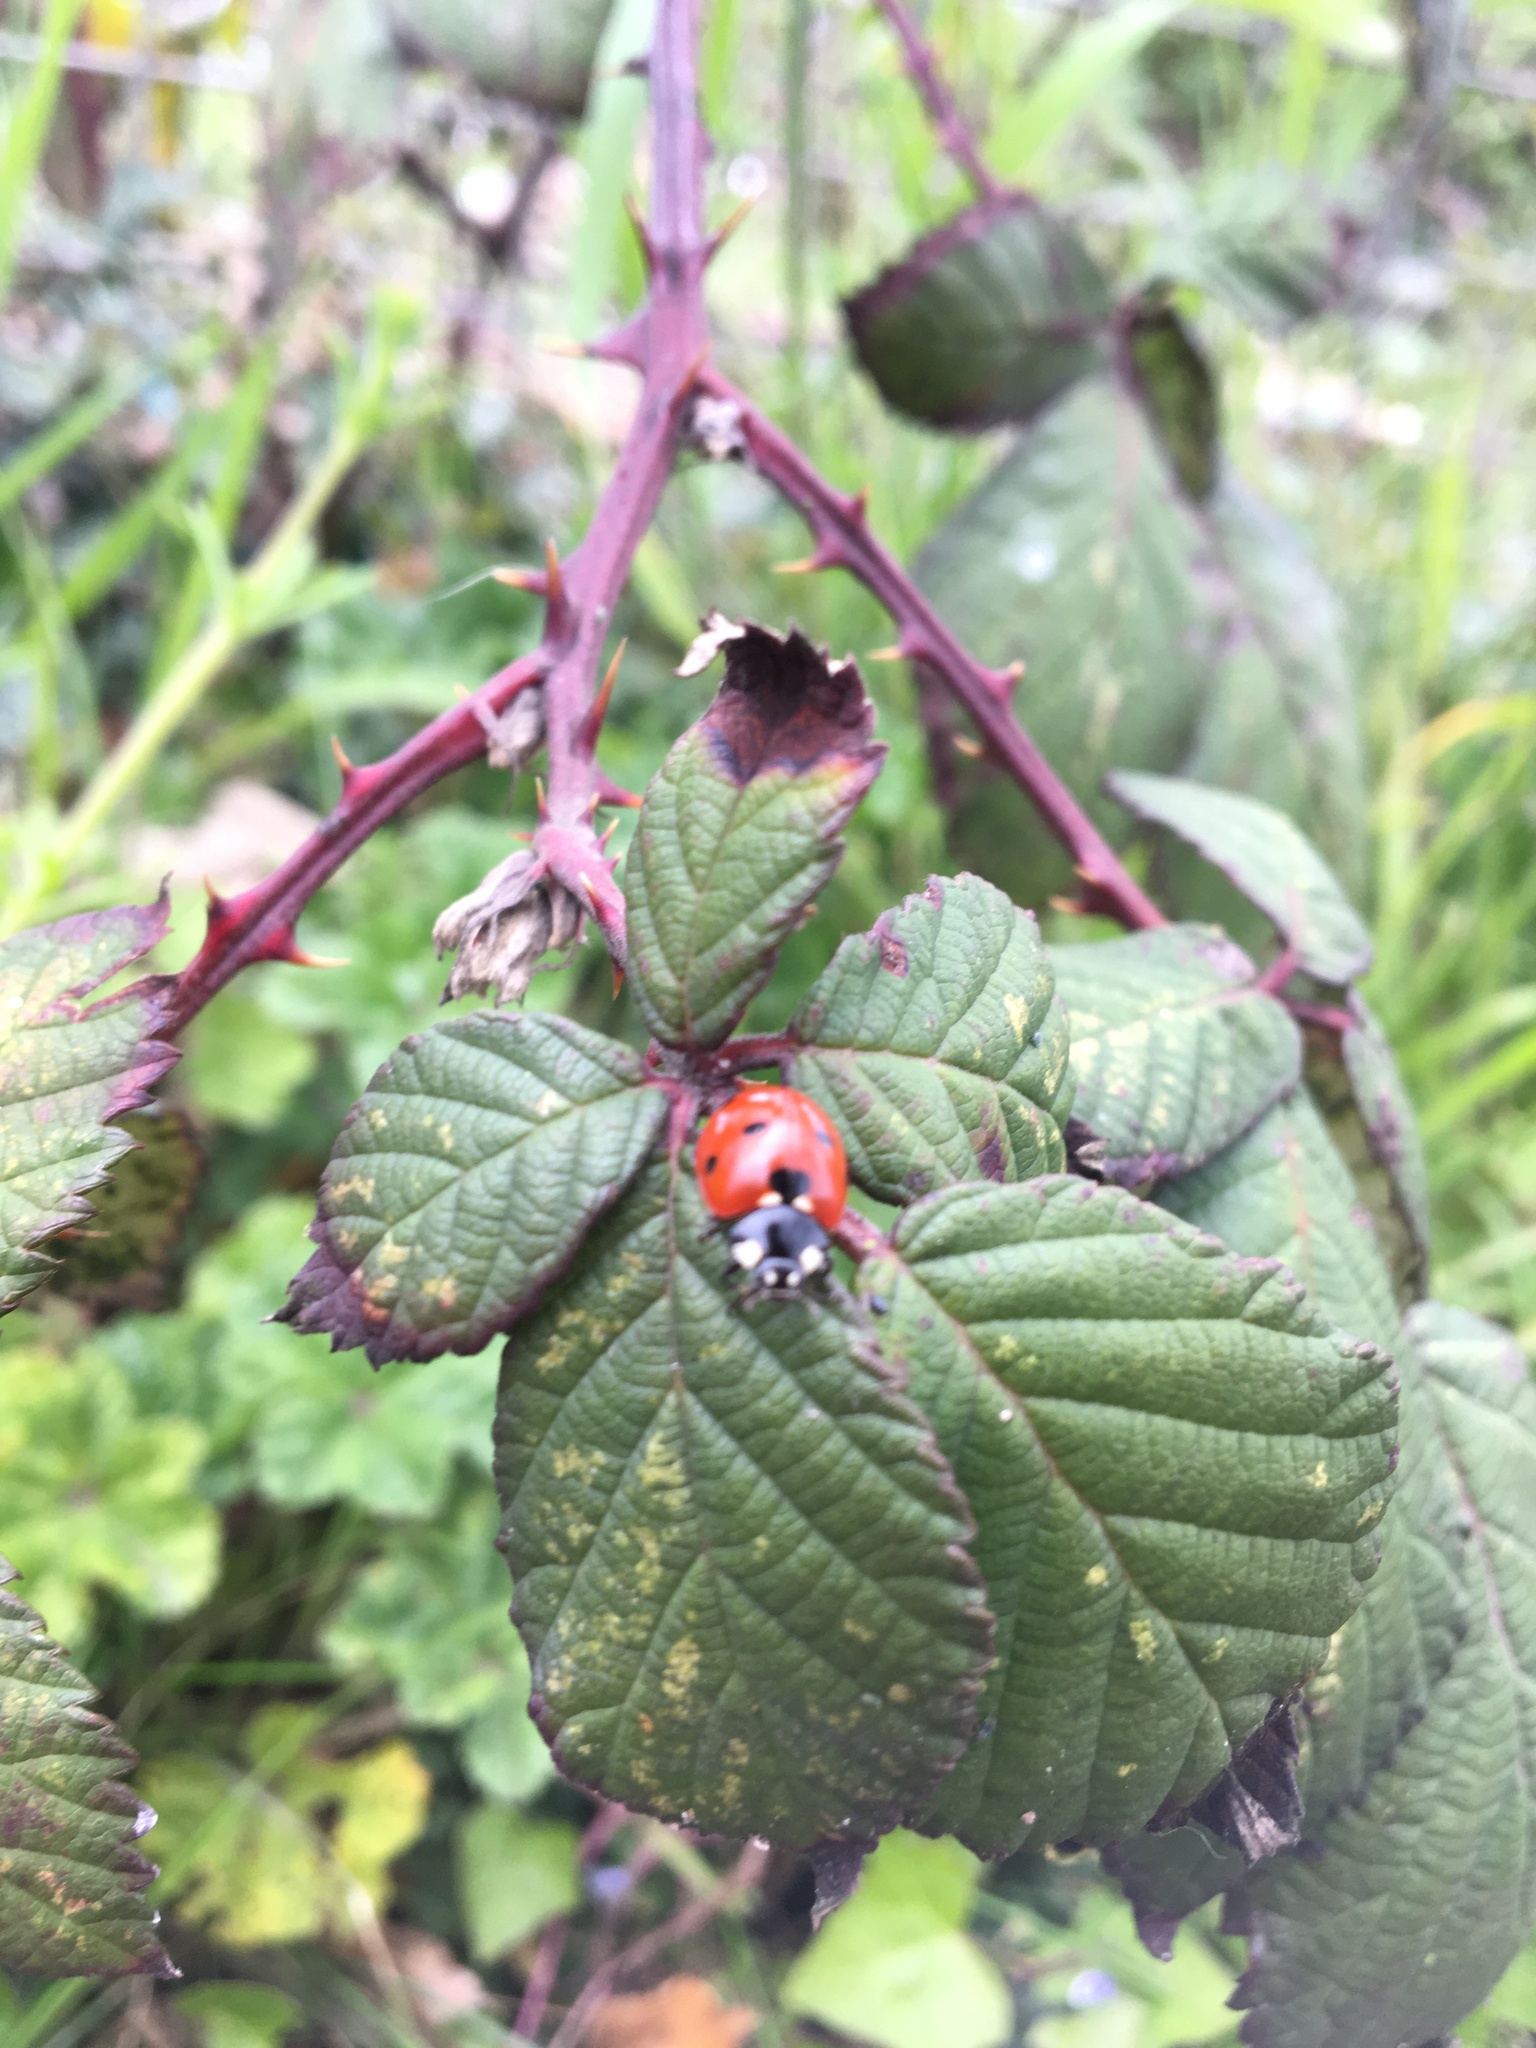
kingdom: Animalia
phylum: Arthropoda
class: Insecta
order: Coleoptera
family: Coccinellidae
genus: Coccinella
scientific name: Coccinella septempunctata
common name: Sevenspotted lady beetle
